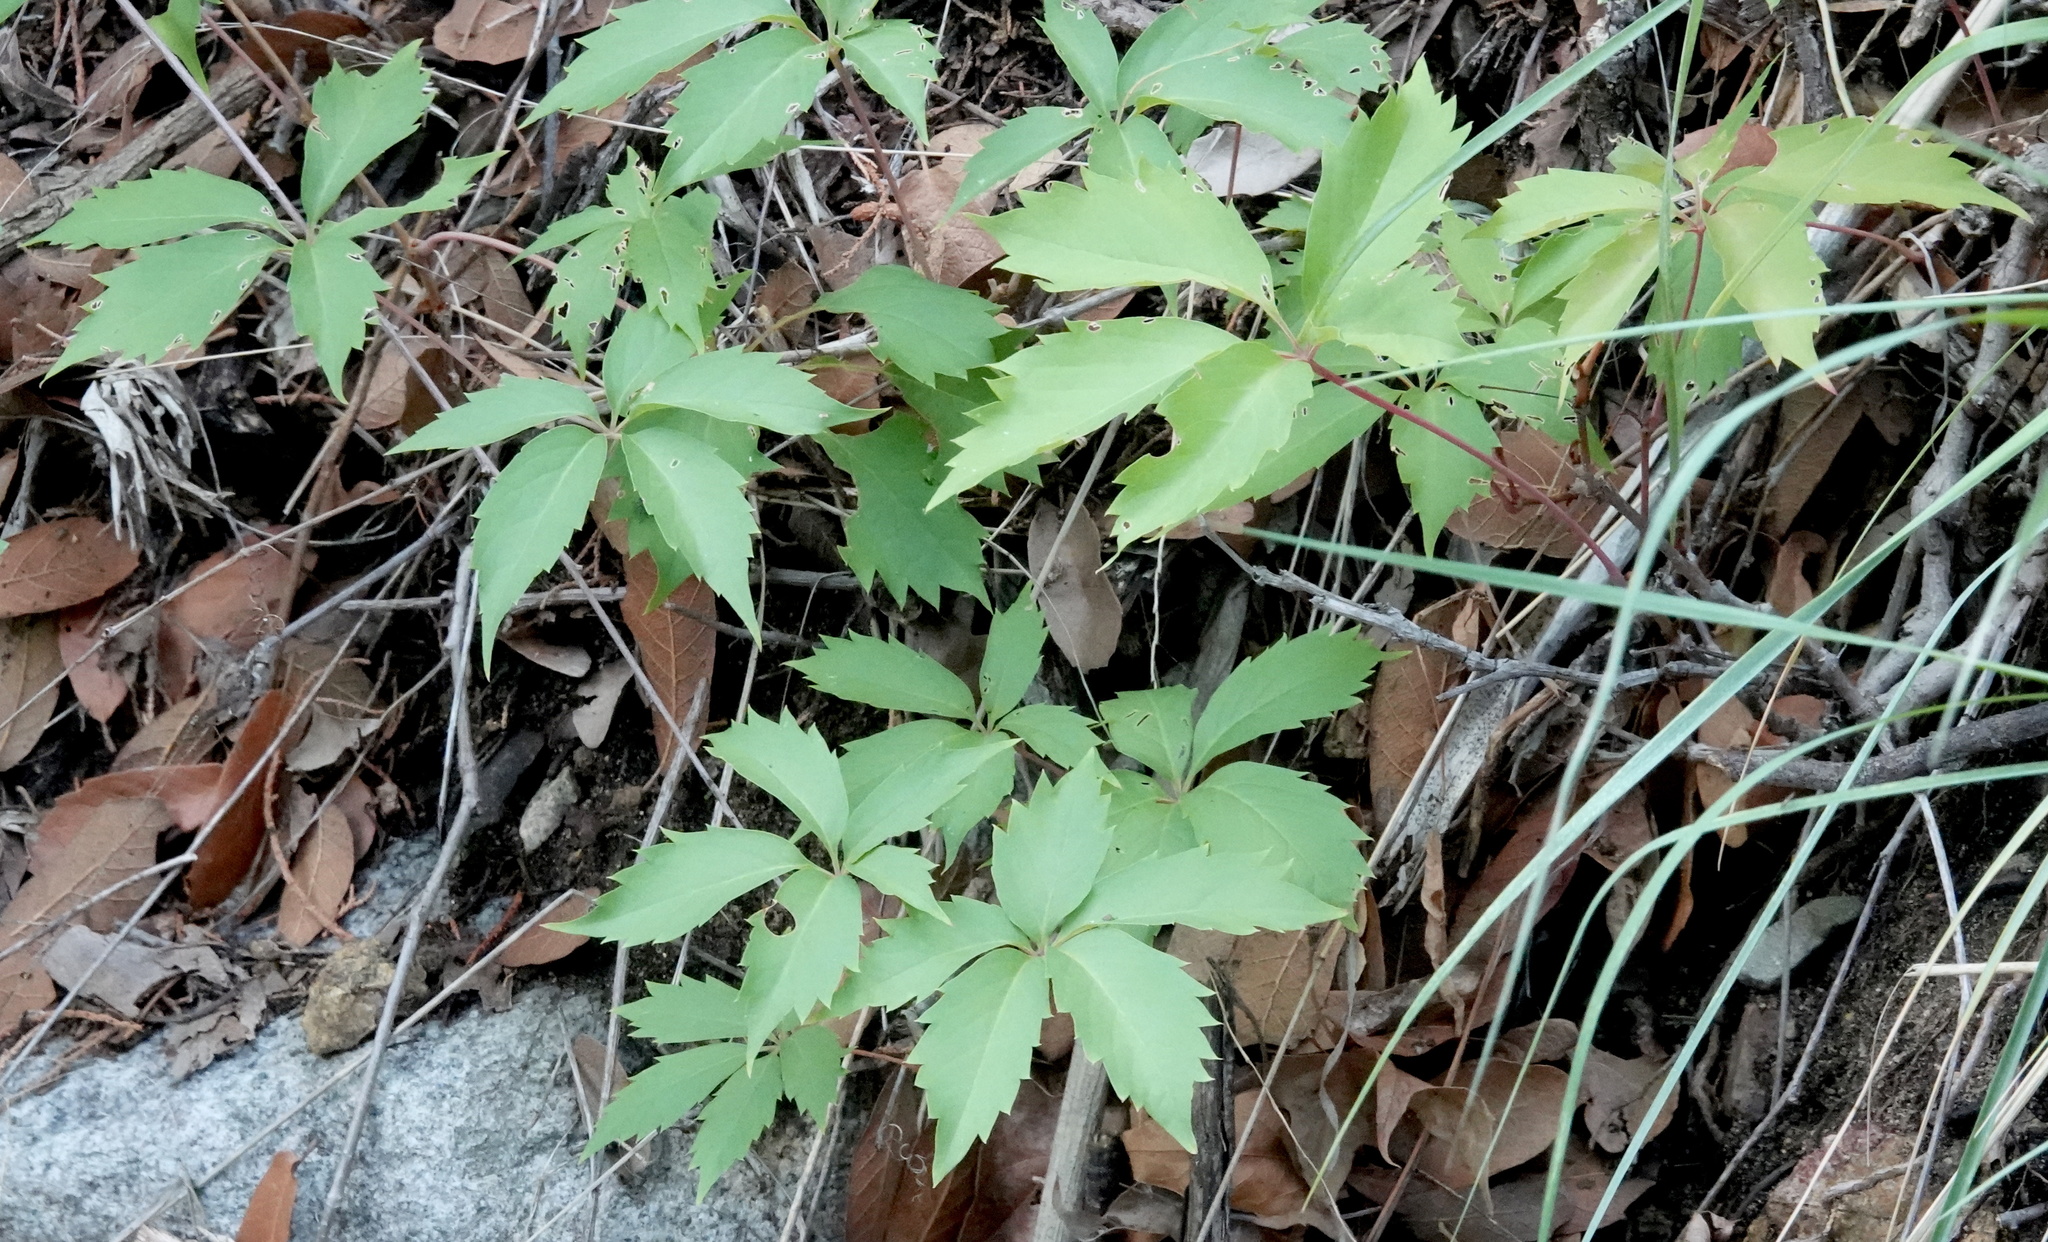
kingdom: Plantae
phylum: Tracheophyta
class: Magnoliopsida
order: Vitales
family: Vitaceae
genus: Parthenocissus
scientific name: Parthenocissus inserta
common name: False virginia-creeper
